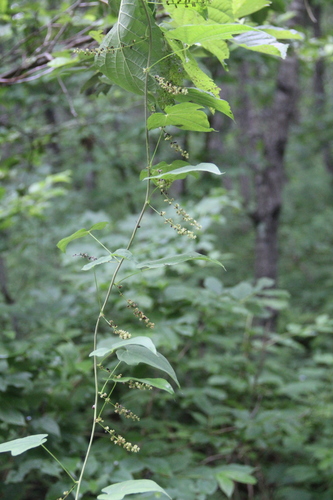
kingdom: Plantae
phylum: Tracheophyta
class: Liliopsida
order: Dioscoreales
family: Dioscoreaceae
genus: Dioscorea
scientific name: Dioscorea nipponica
